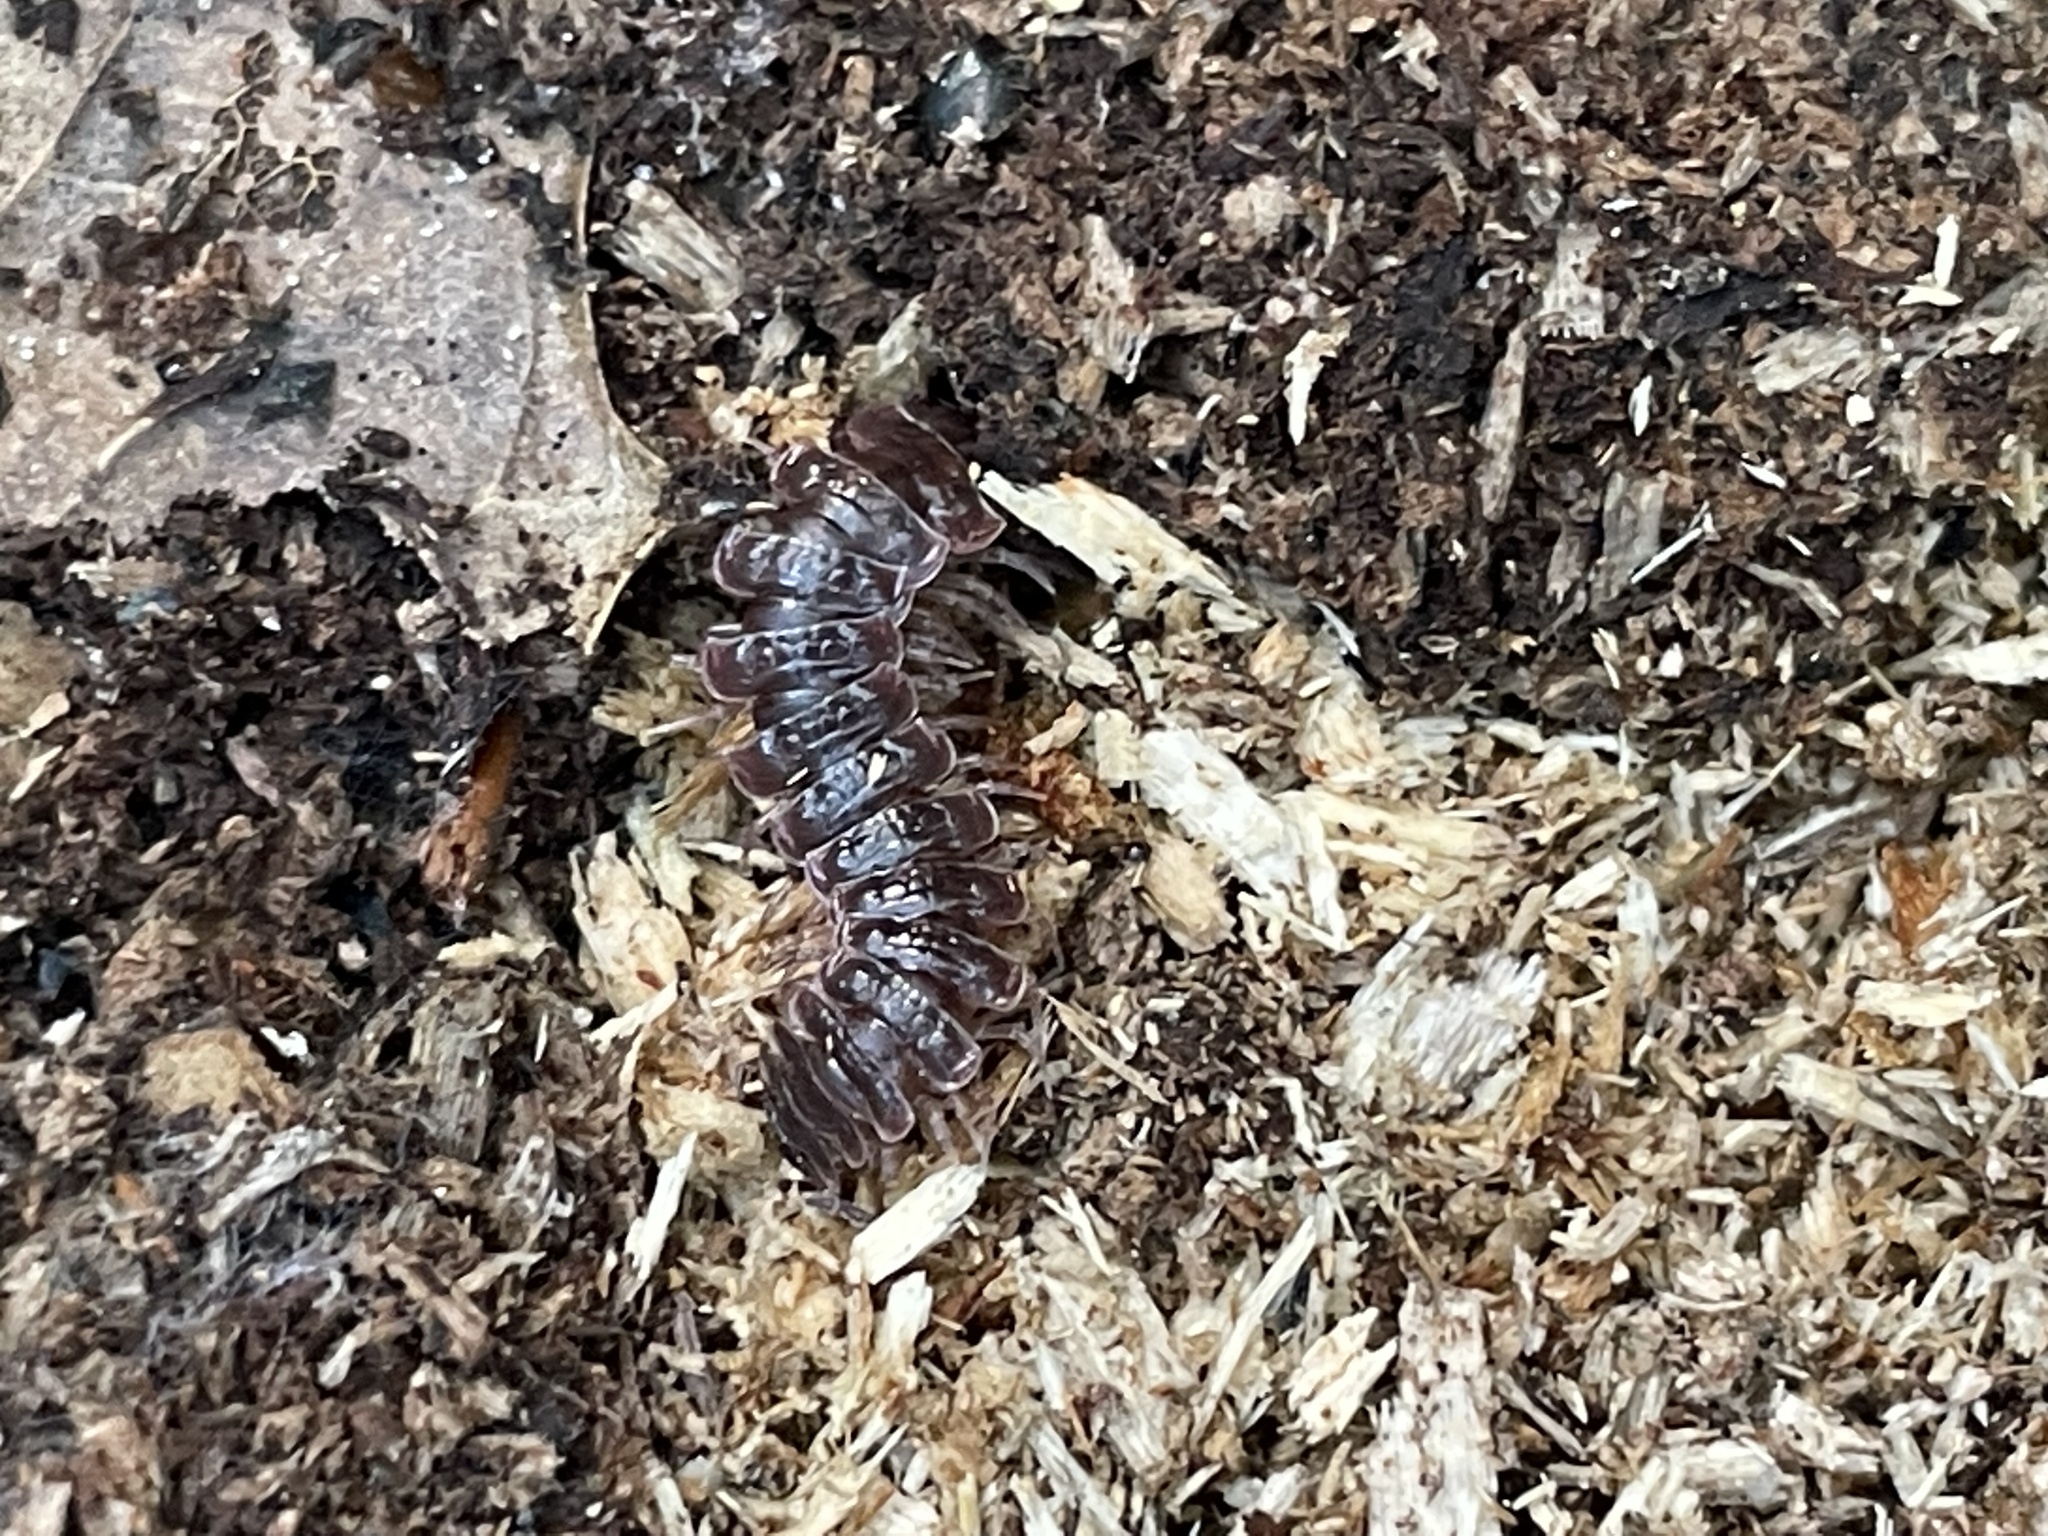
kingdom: Animalia
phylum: Arthropoda
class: Diplopoda
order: Polydesmida
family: Polydesmidae
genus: Pseudopolydesmus
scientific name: Pseudopolydesmus serratus
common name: Common pink flat-back millipede
